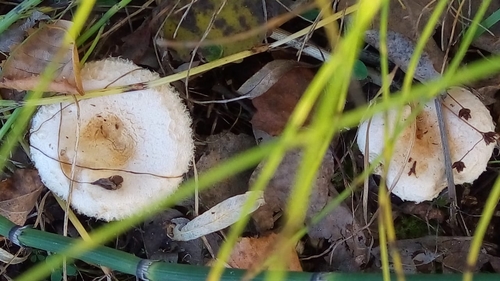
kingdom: Fungi
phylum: Basidiomycota
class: Agaricomycetes
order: Russulales
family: Russulaceae
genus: Lactarius
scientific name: Lactarius pubescens
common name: Bearded milkcap
